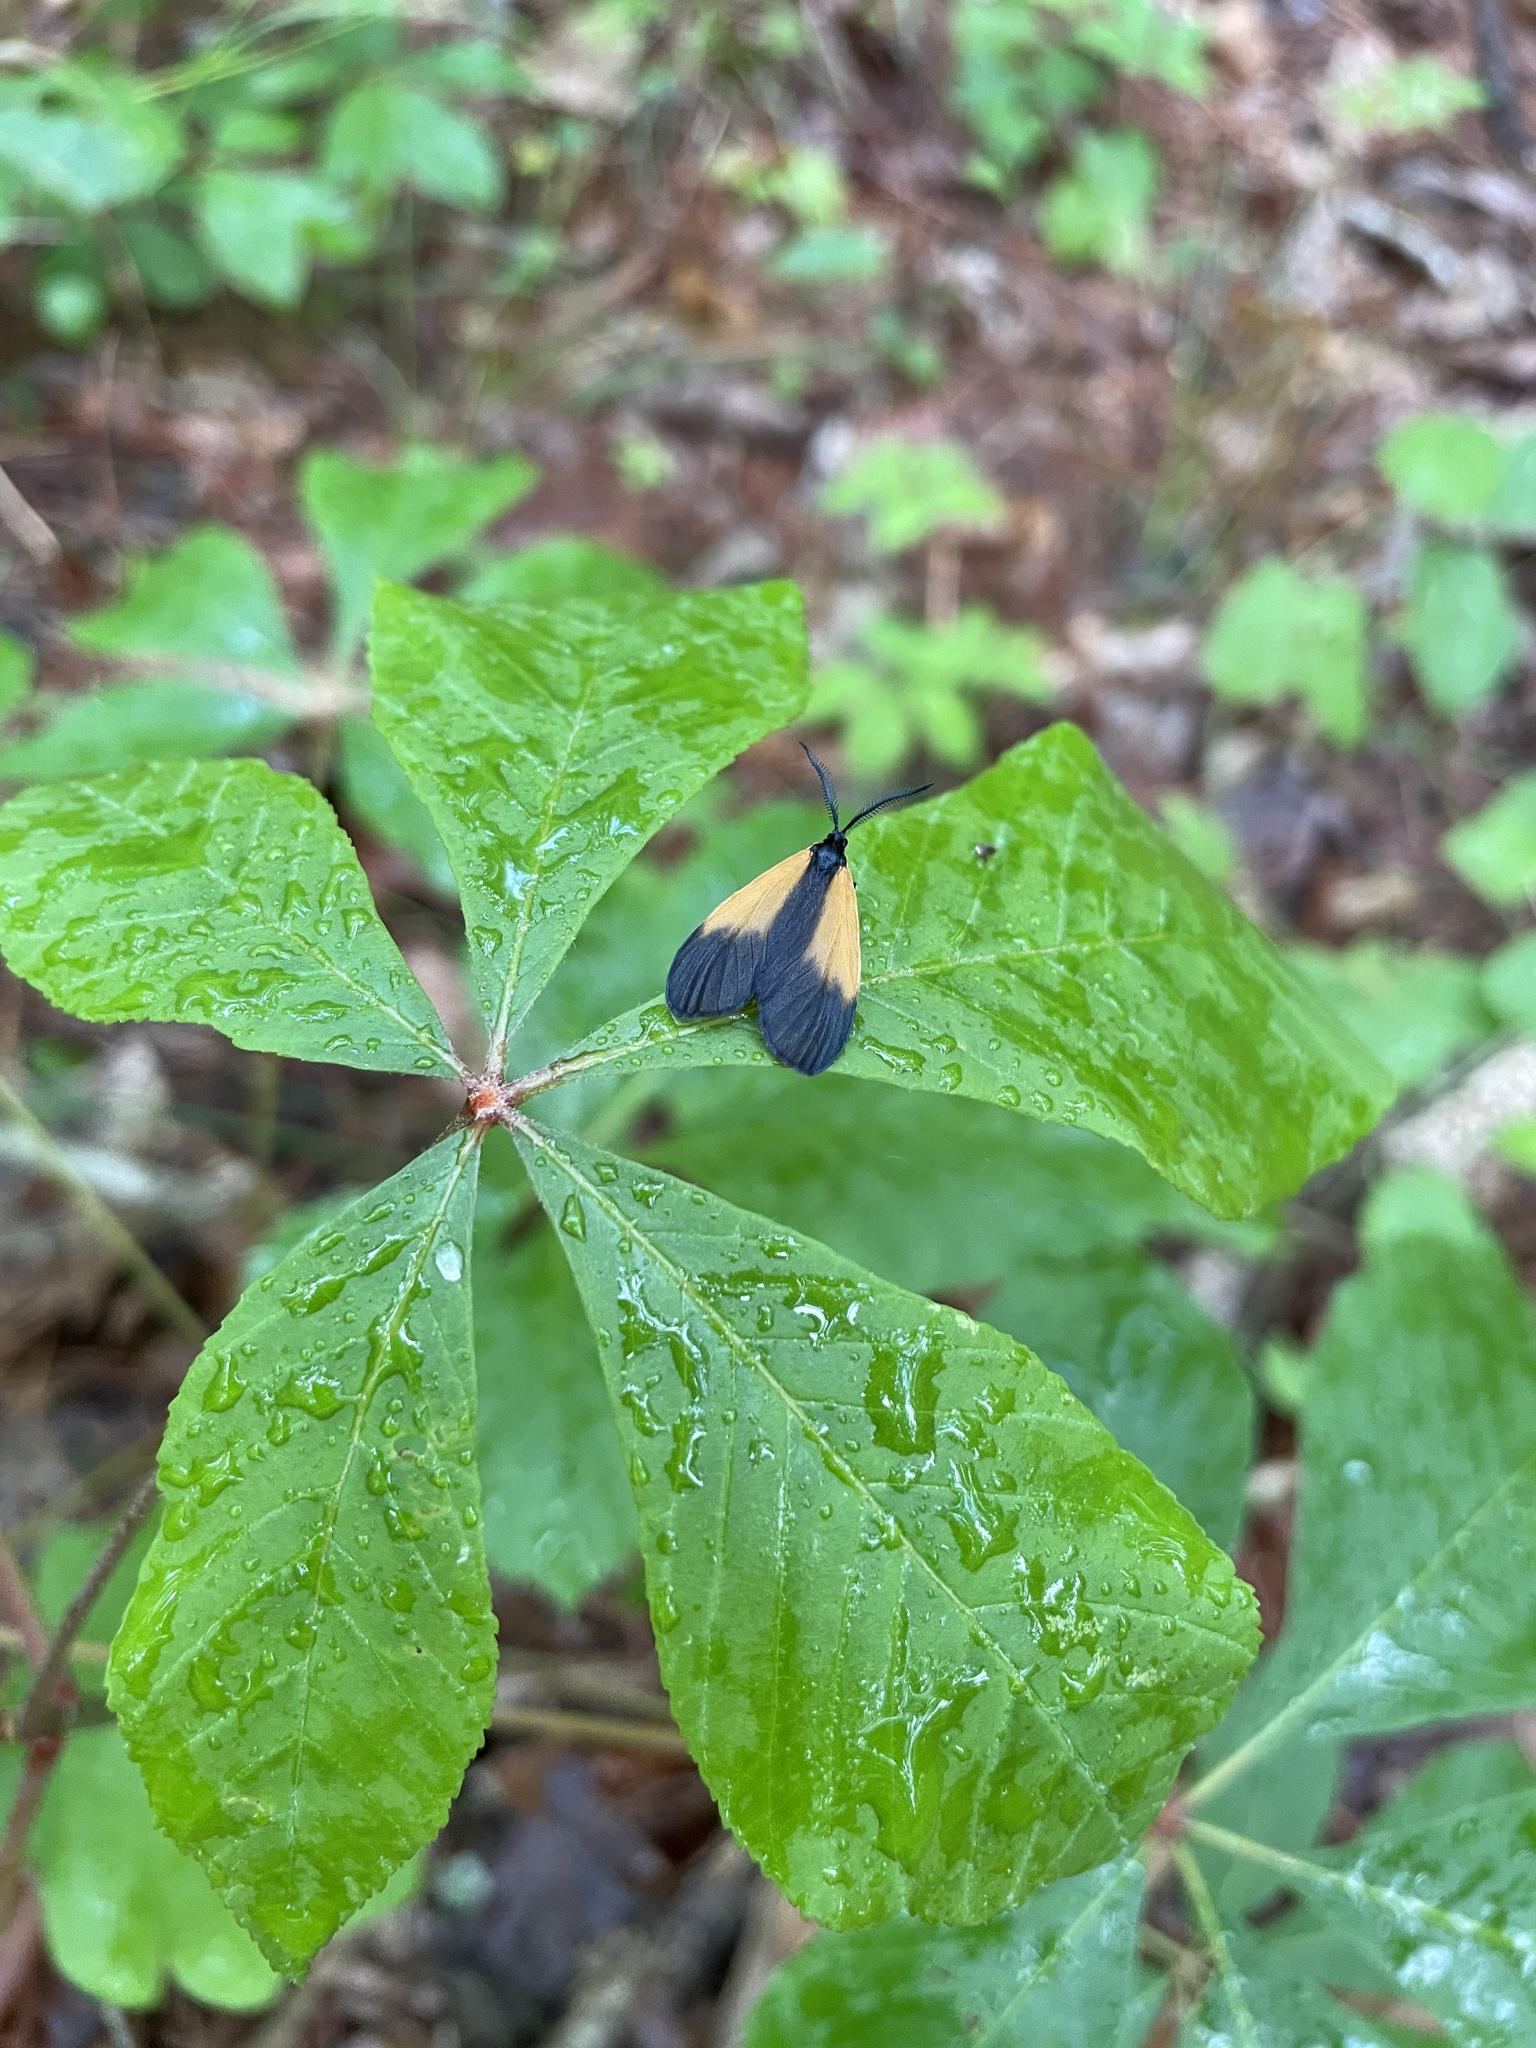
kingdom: Animalia
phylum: Arthropoda
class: Insecta
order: Lepidoptera
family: Zygaenidae
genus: Malthaca
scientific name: Malthaca dimidiata
